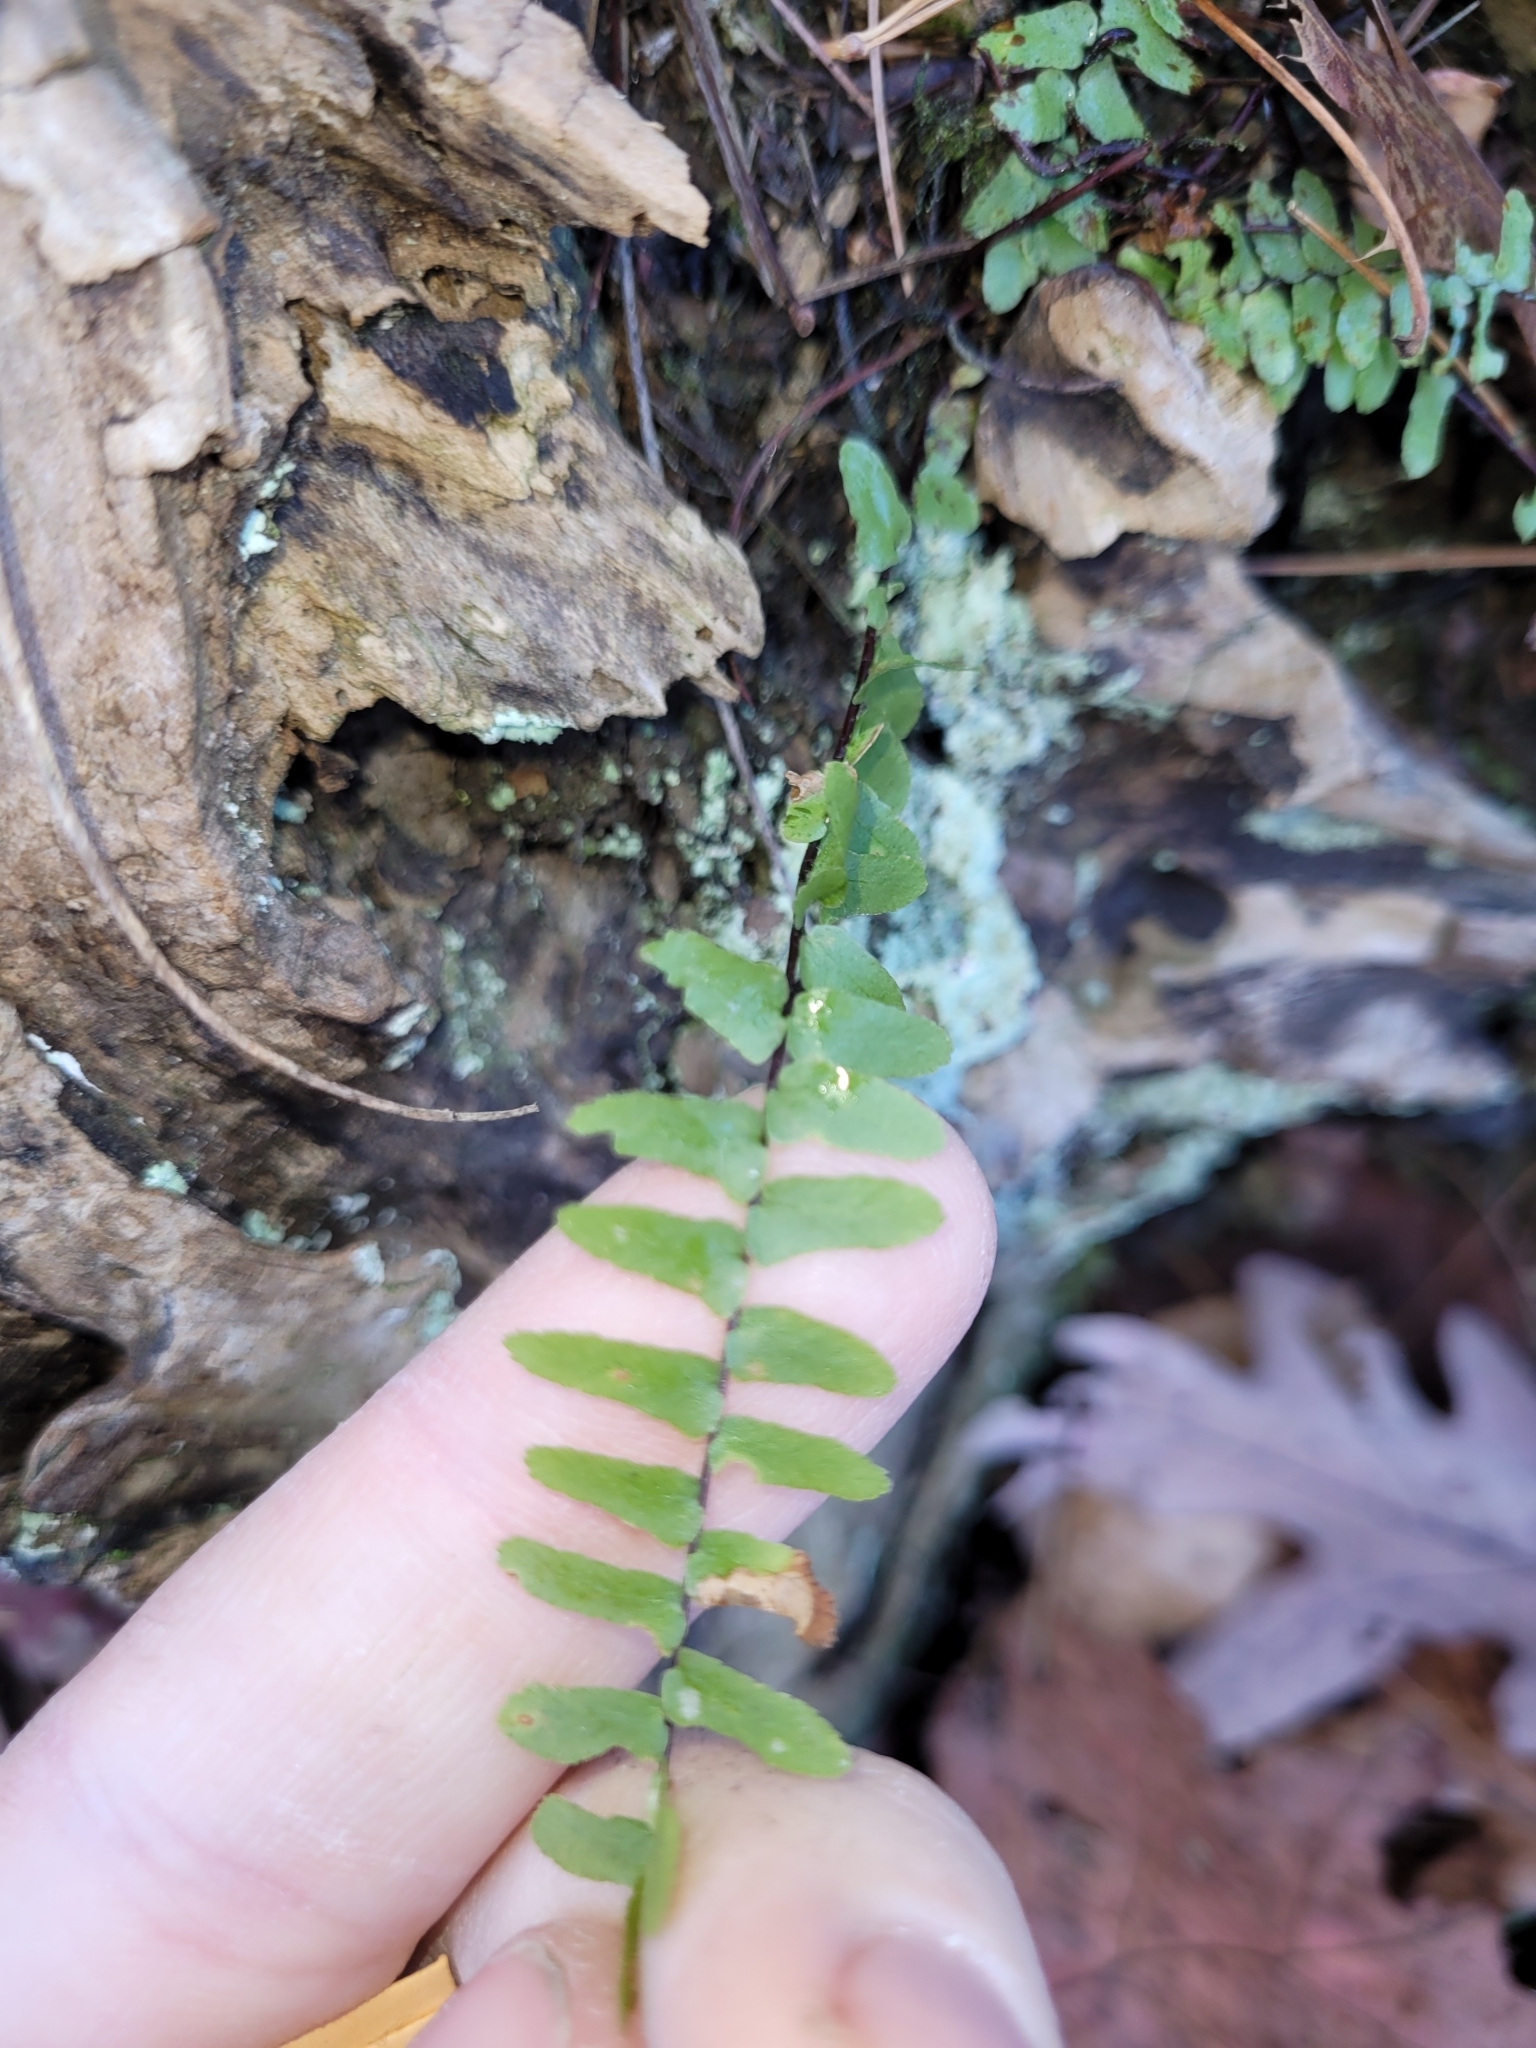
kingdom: Plantae
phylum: Tracheophyta
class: Polypodiopsida
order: Polypodiales
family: Aspleniaceae
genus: Asplenium
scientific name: Asplenium platyneuron
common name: Ebony spleenwort
